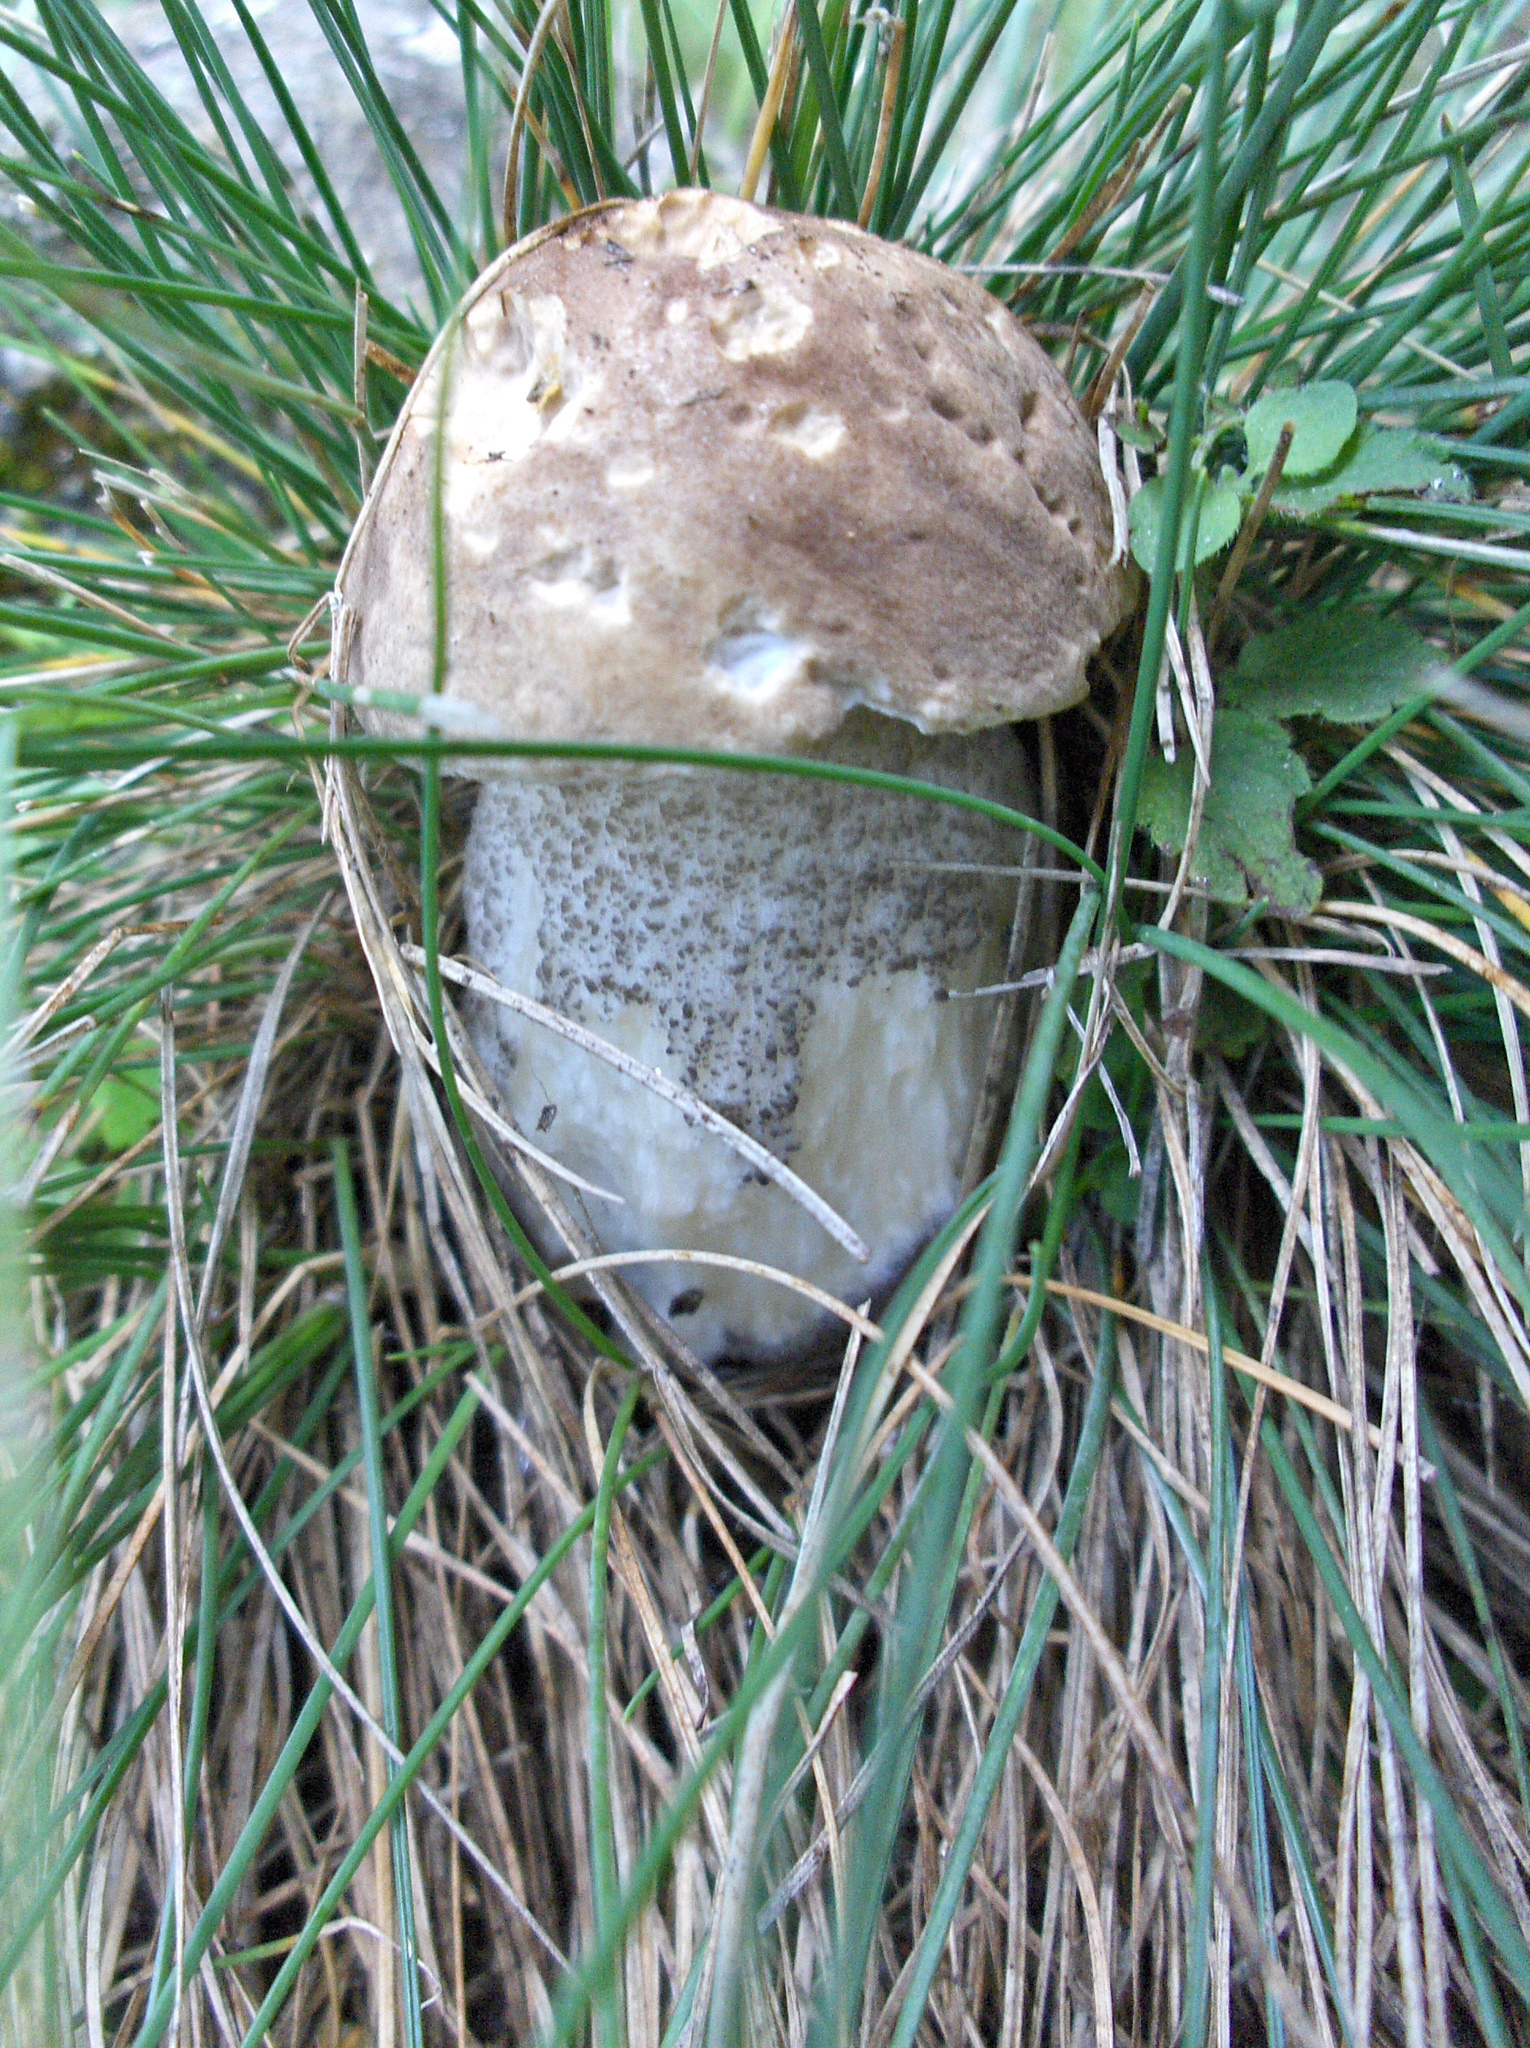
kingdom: Fungi
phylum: Basidiomycota
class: Agaricomycetes
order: Boletales
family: Boletaceae
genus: Leccinum
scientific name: Leccinum scabrum
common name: Blushing bolete
